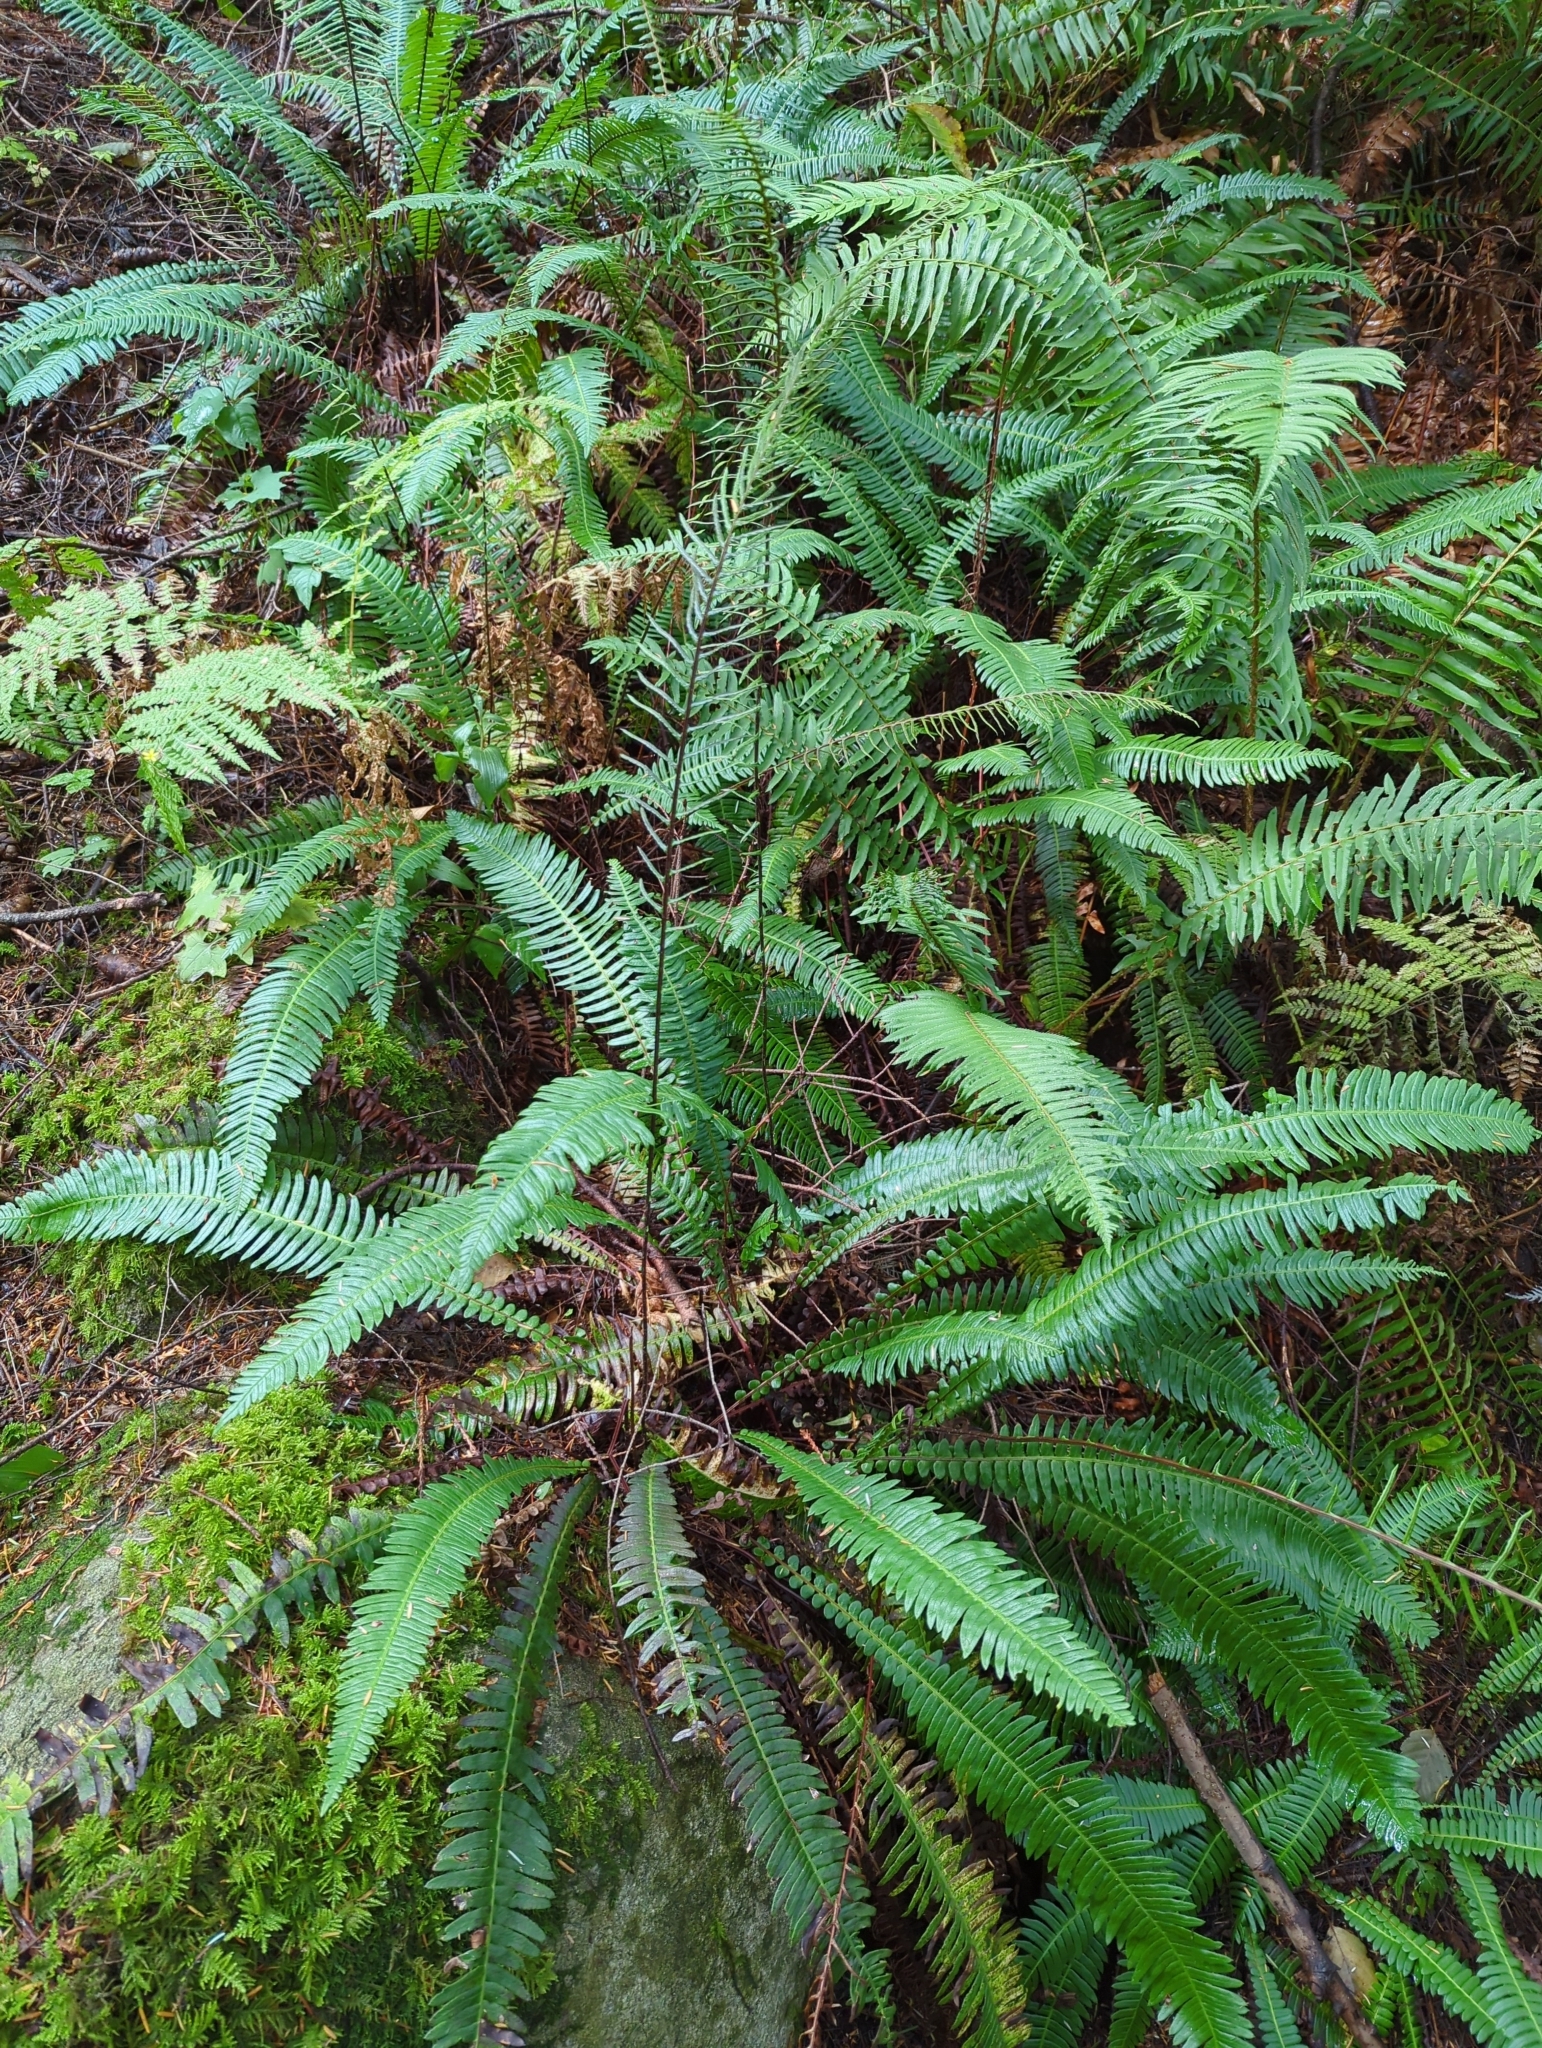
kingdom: Plantae
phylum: Tracheophyta
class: Polypodiopsida
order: Polypodiales
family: Blechnaceae
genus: Struthiopteris
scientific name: Struthiopteris spicant
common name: Deer fern
